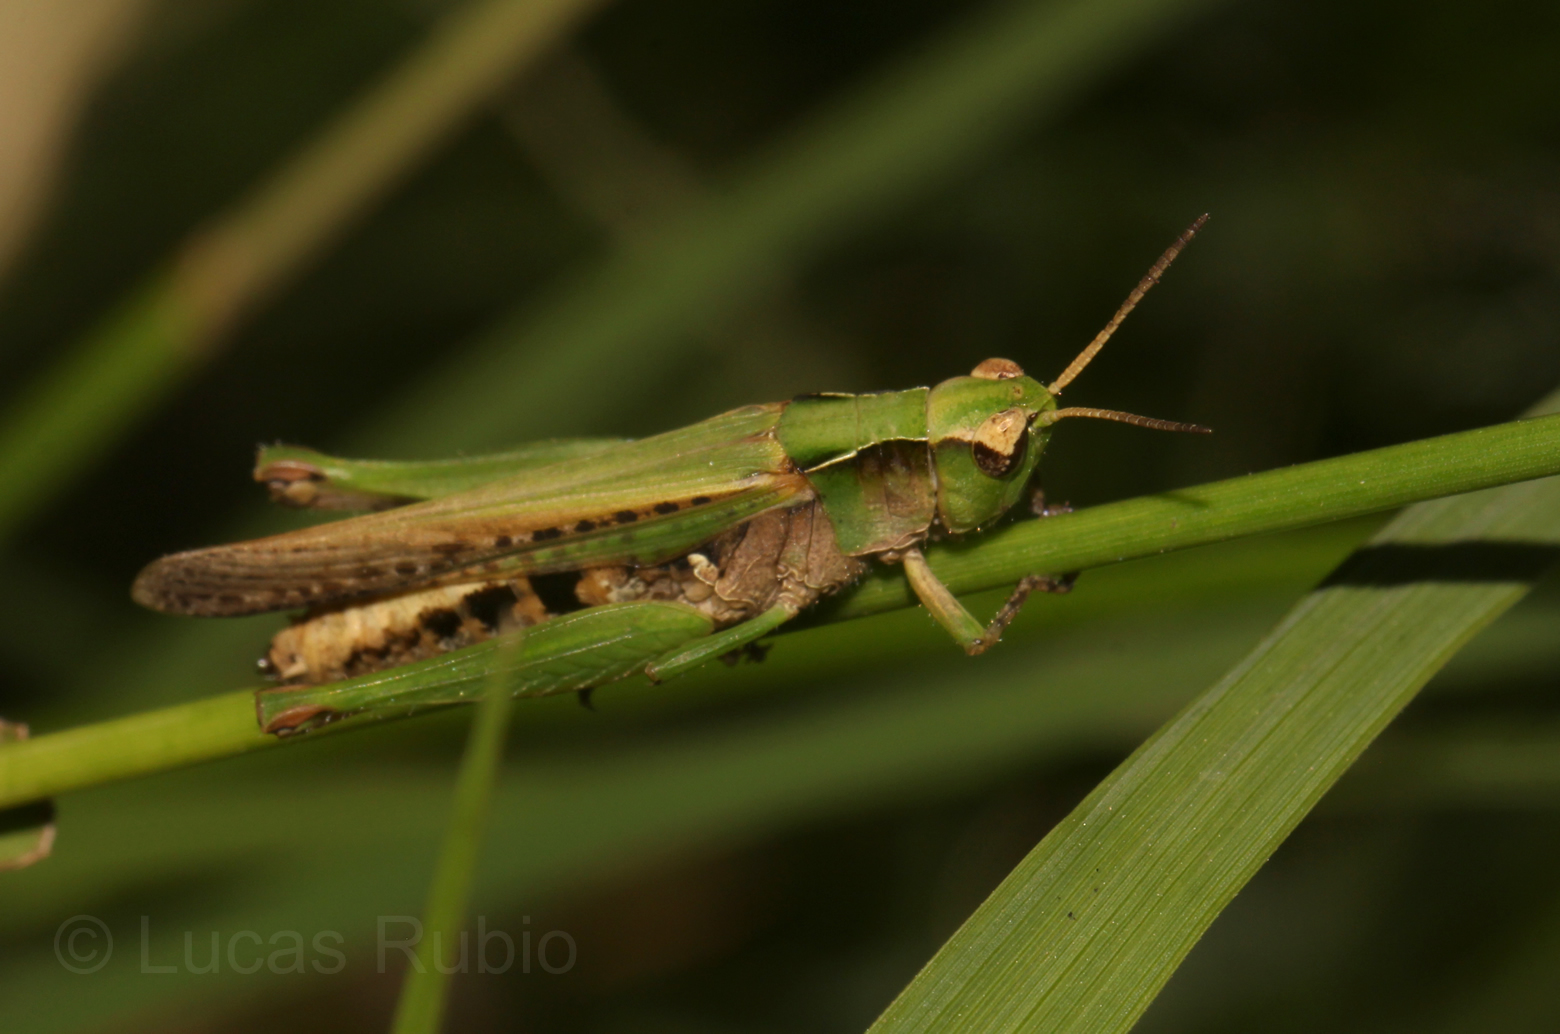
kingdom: Animalia
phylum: Arthropoda
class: Insecta
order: Orthoptera
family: Acrididae
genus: Orphulella
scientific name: Orphulella punctata
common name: Slant-faced grasshopper
